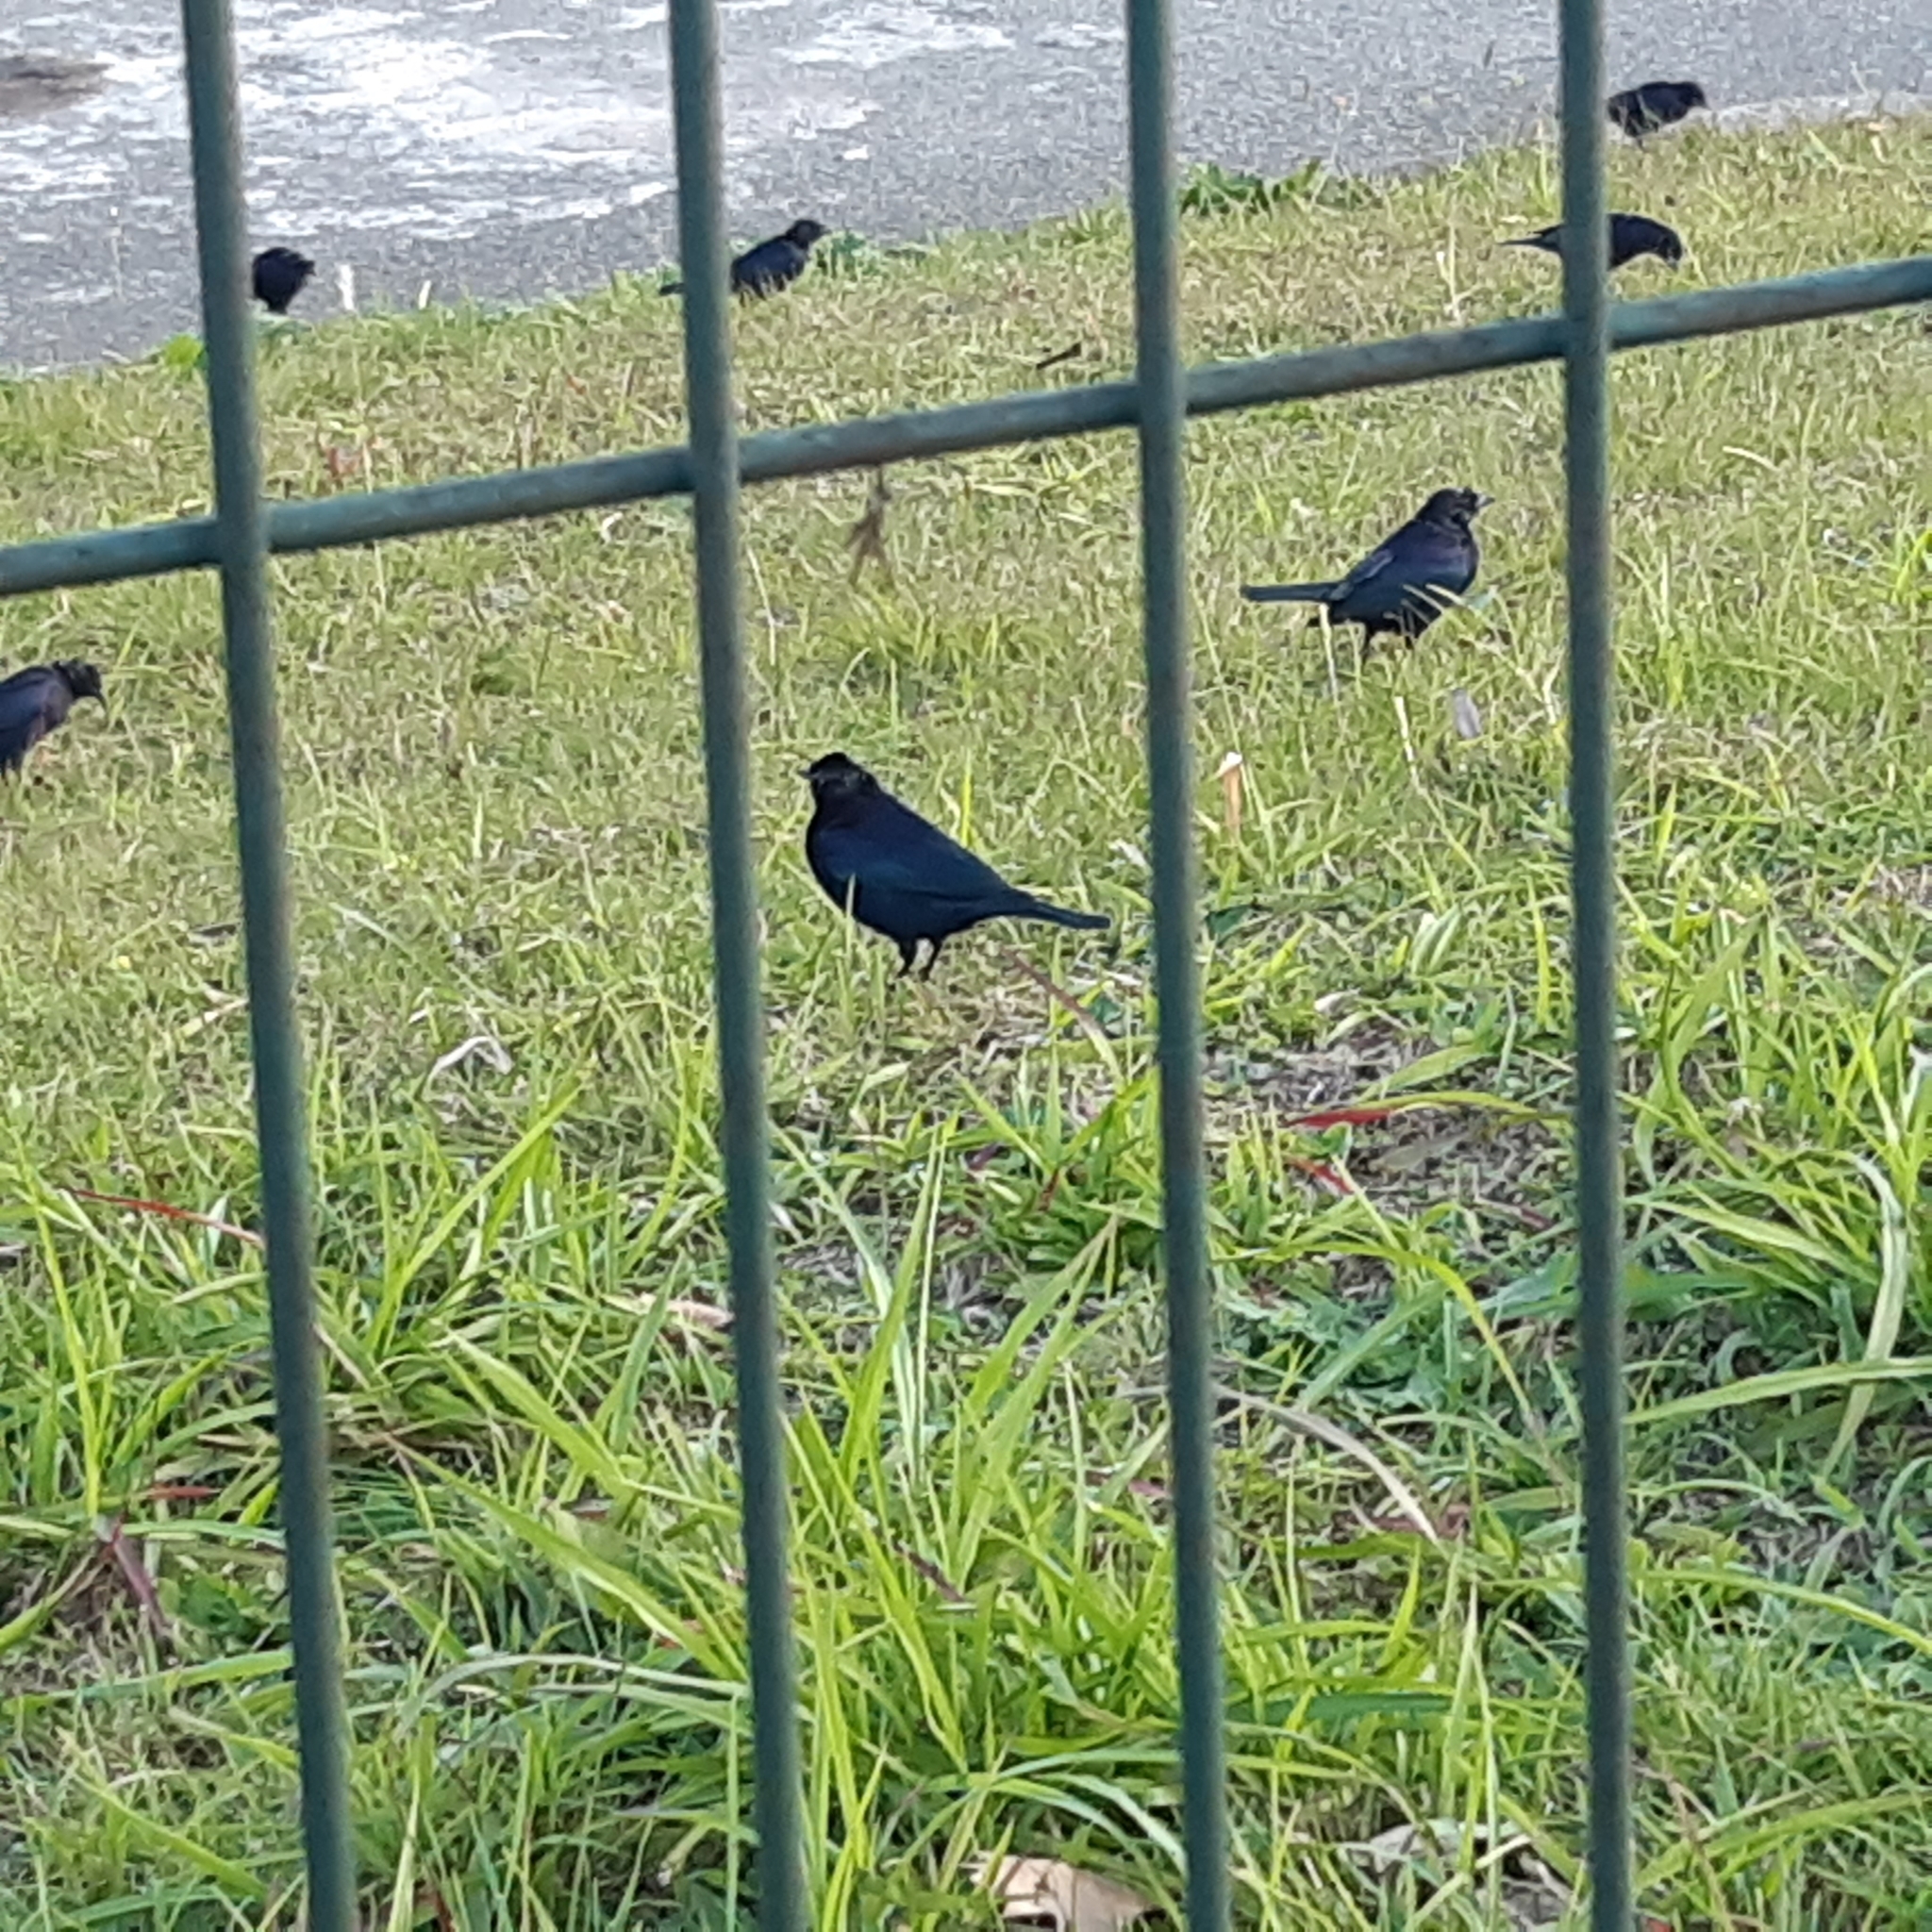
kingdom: Animalia
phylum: Chordata
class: Aves
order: Passeriformes
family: Icteridae
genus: Molothrus
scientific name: Molothrus bonariensis
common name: Shiny cowbird
